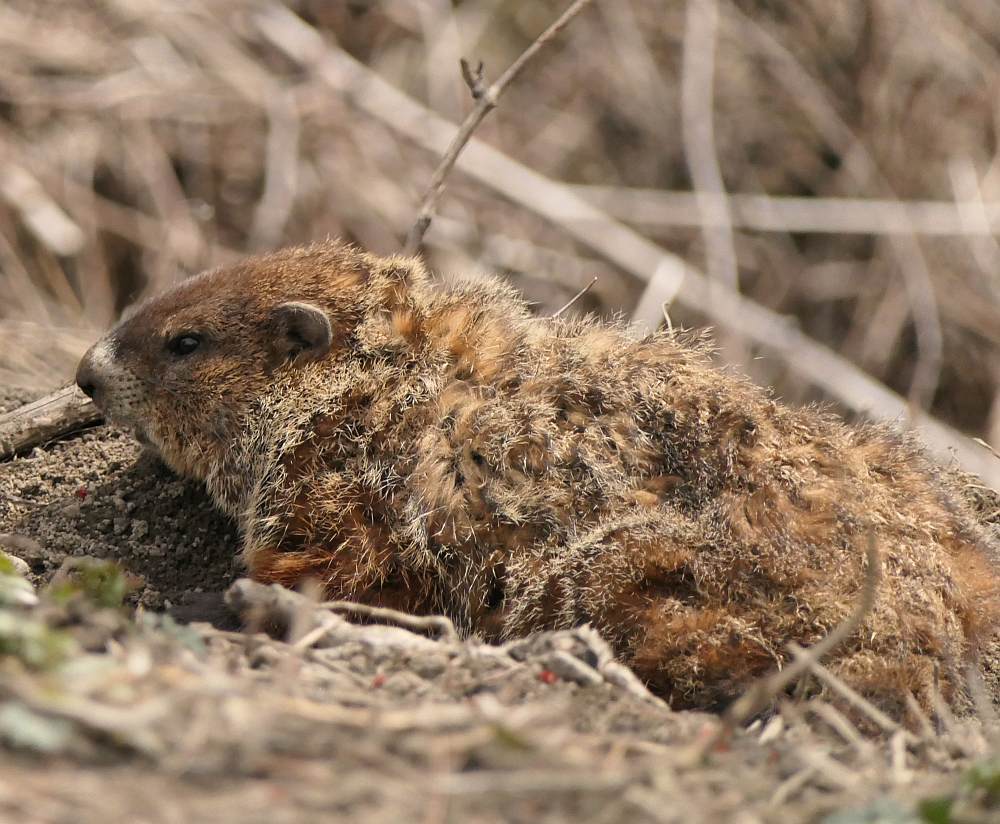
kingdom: Animalia
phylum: Chordata
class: Mammalia
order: Rodentia
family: Sciuridae
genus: Marmota
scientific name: Marmota monax
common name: Groundhog
